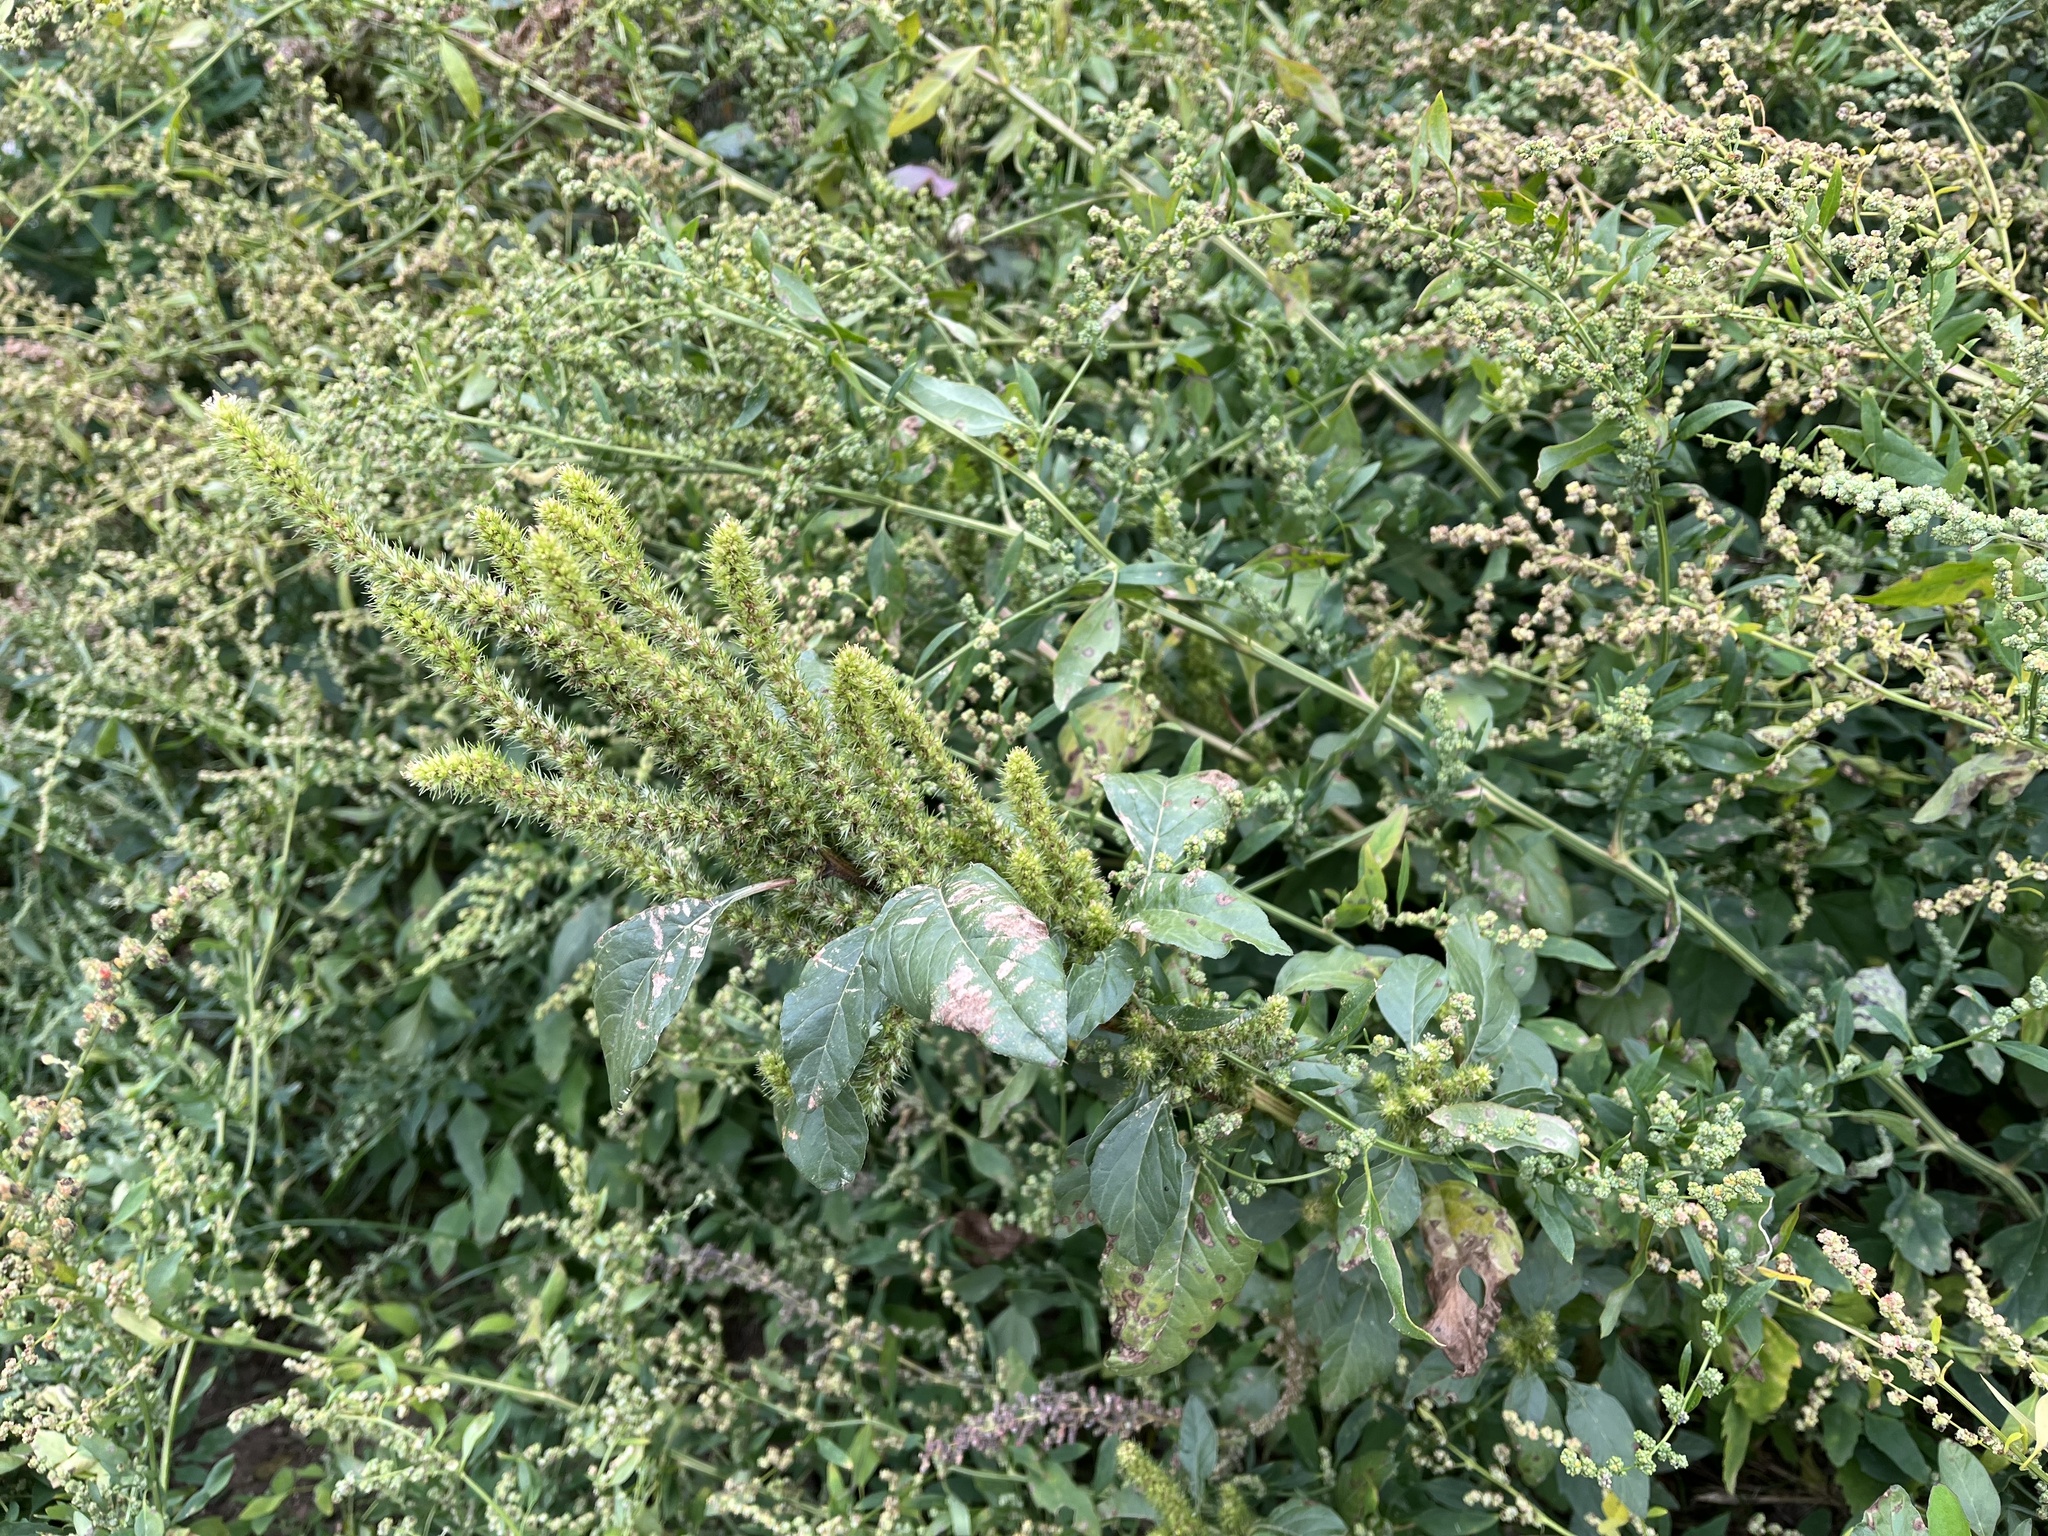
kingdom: Plantae
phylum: Tracheophyta
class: Magnoliopsida
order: Caryophyllales
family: Amaranthaceae
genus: Amaranthus
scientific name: Amaranthus powellii
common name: Powell's amaranth
